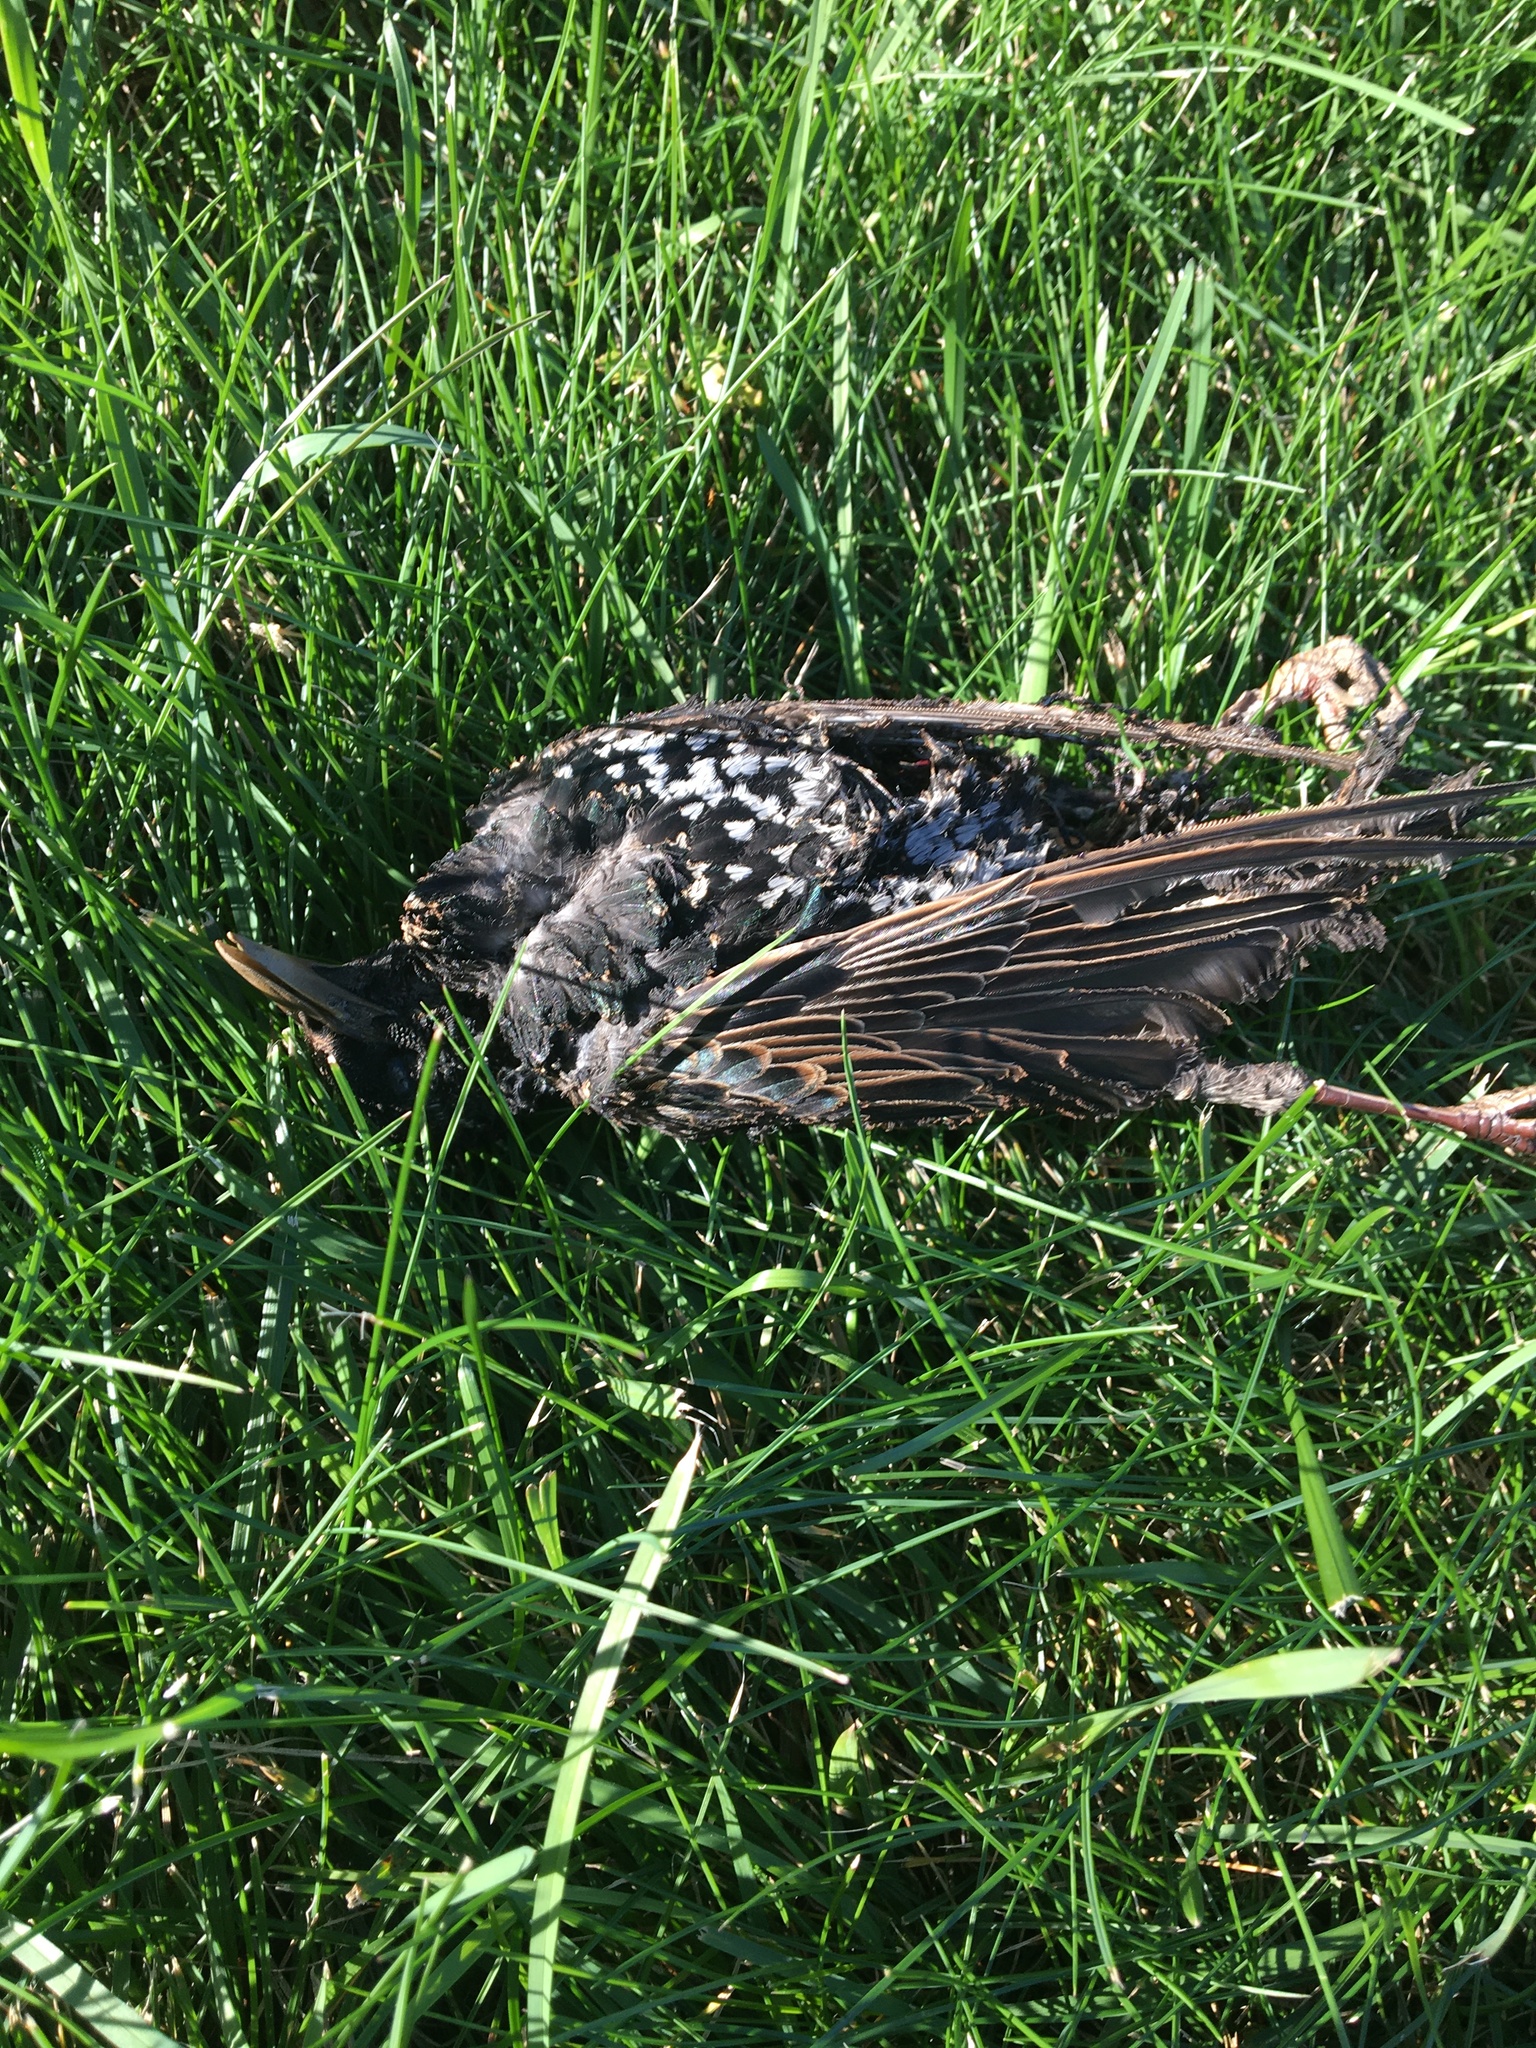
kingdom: Animalia
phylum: Chordata
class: Aves
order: Passeriformes
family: Sturnidae
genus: Sturnus
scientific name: Sturnus vulgaris
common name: Common starling
